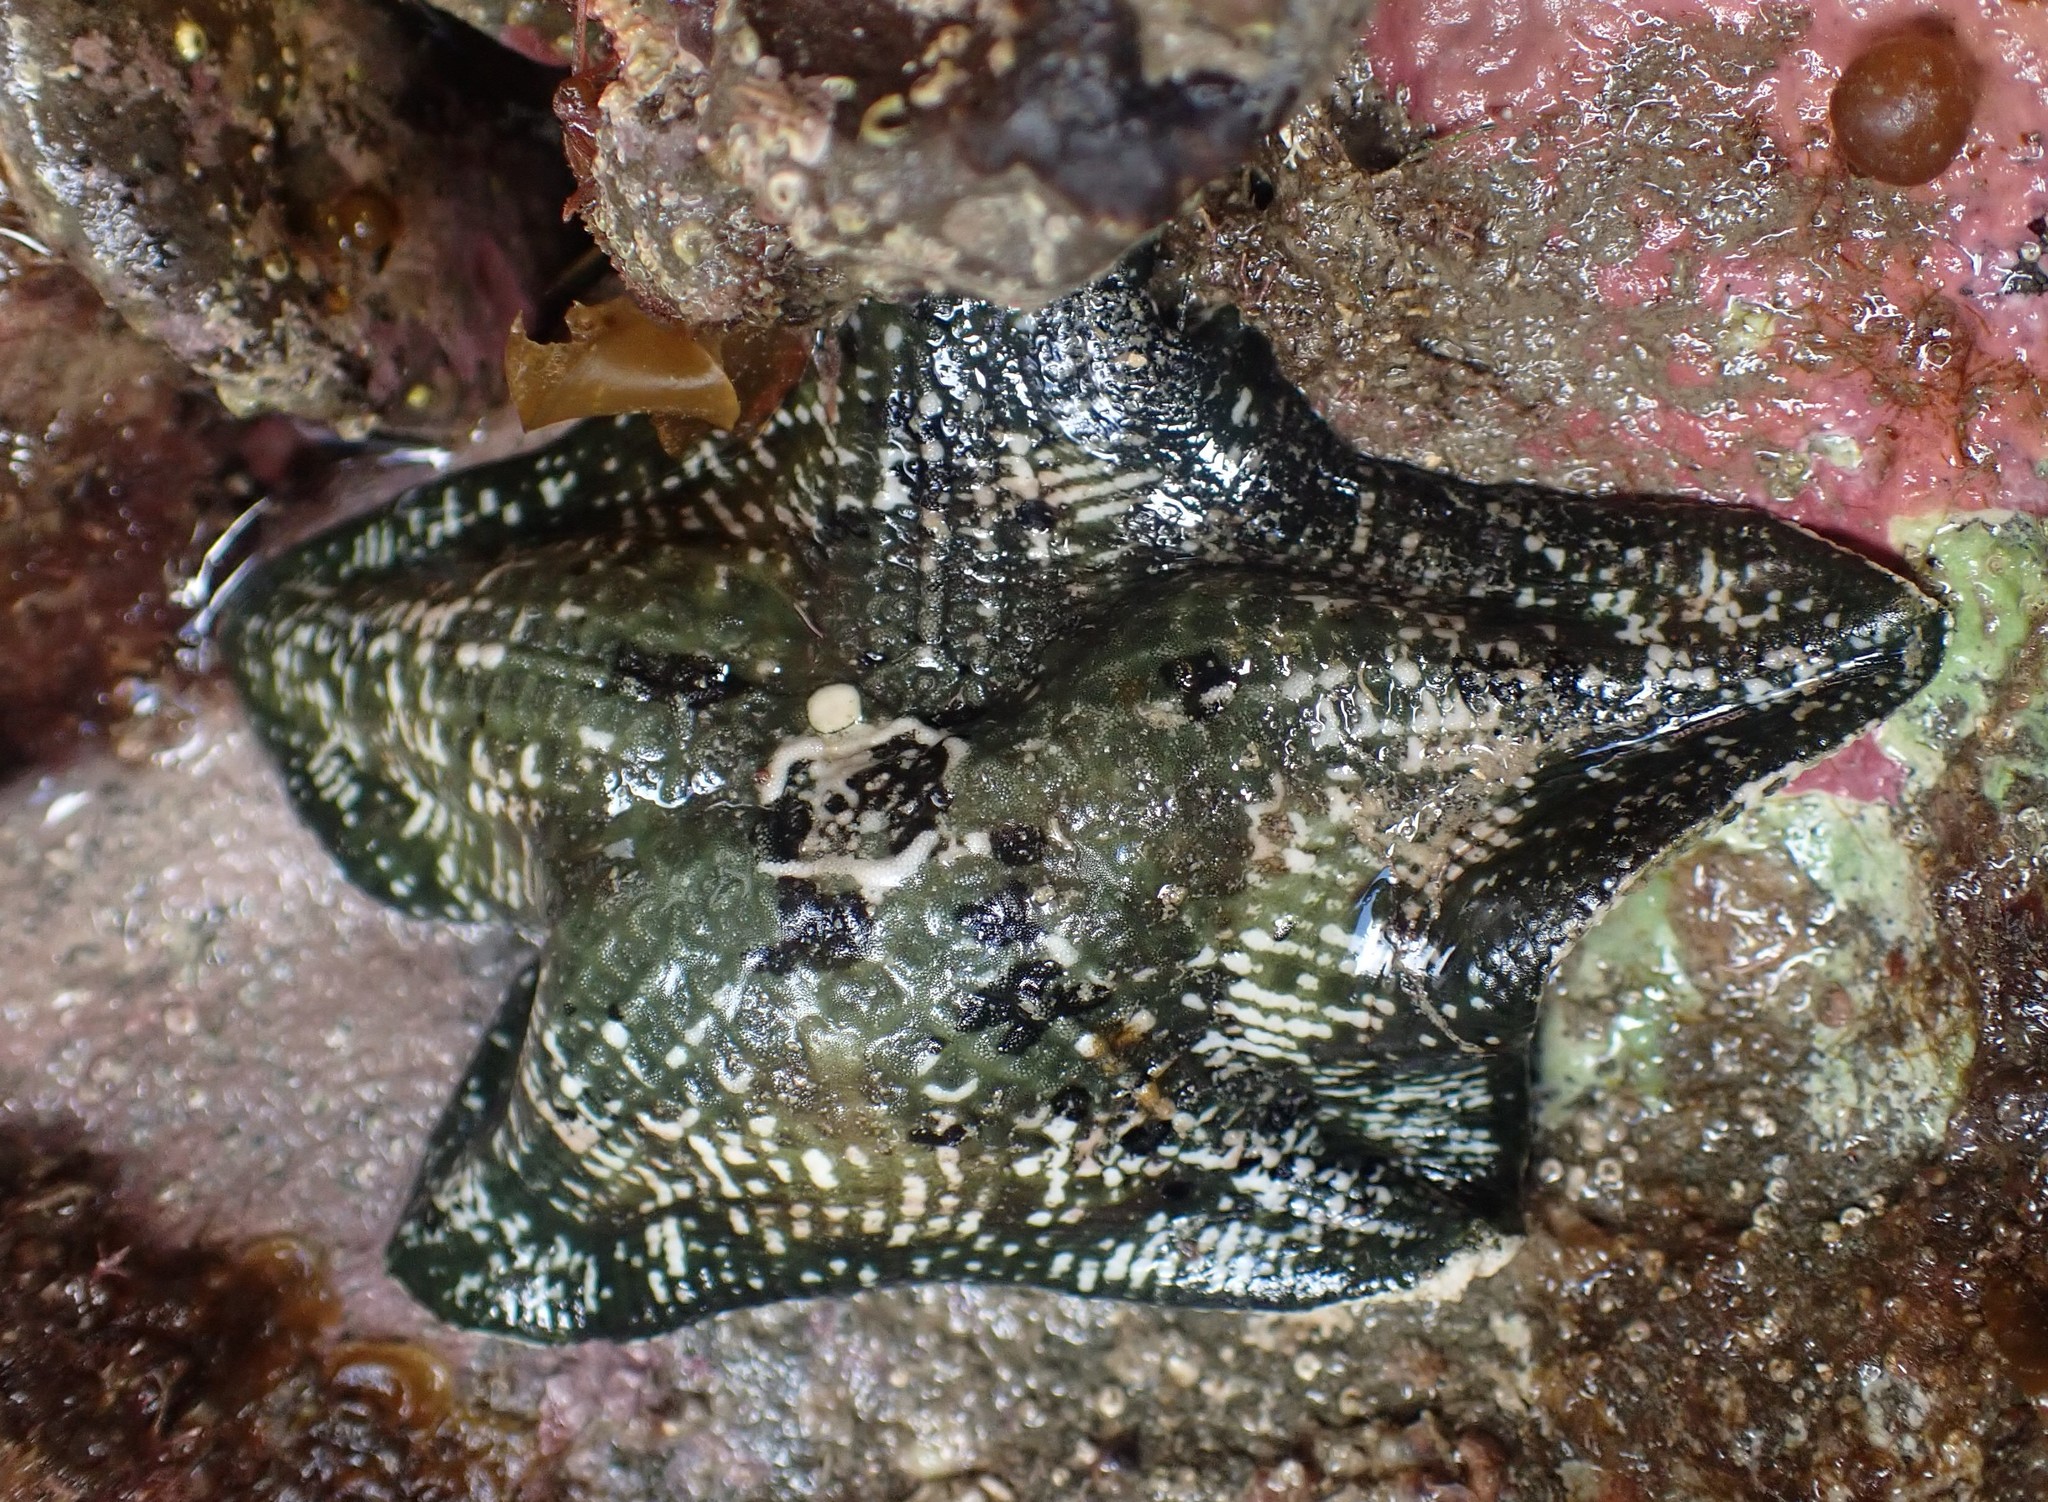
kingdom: Animalia
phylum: Echinodermata
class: Asteroidea
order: Valvatida
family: Asterinidae
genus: Stegnaster
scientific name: Stegnaster inflatus
